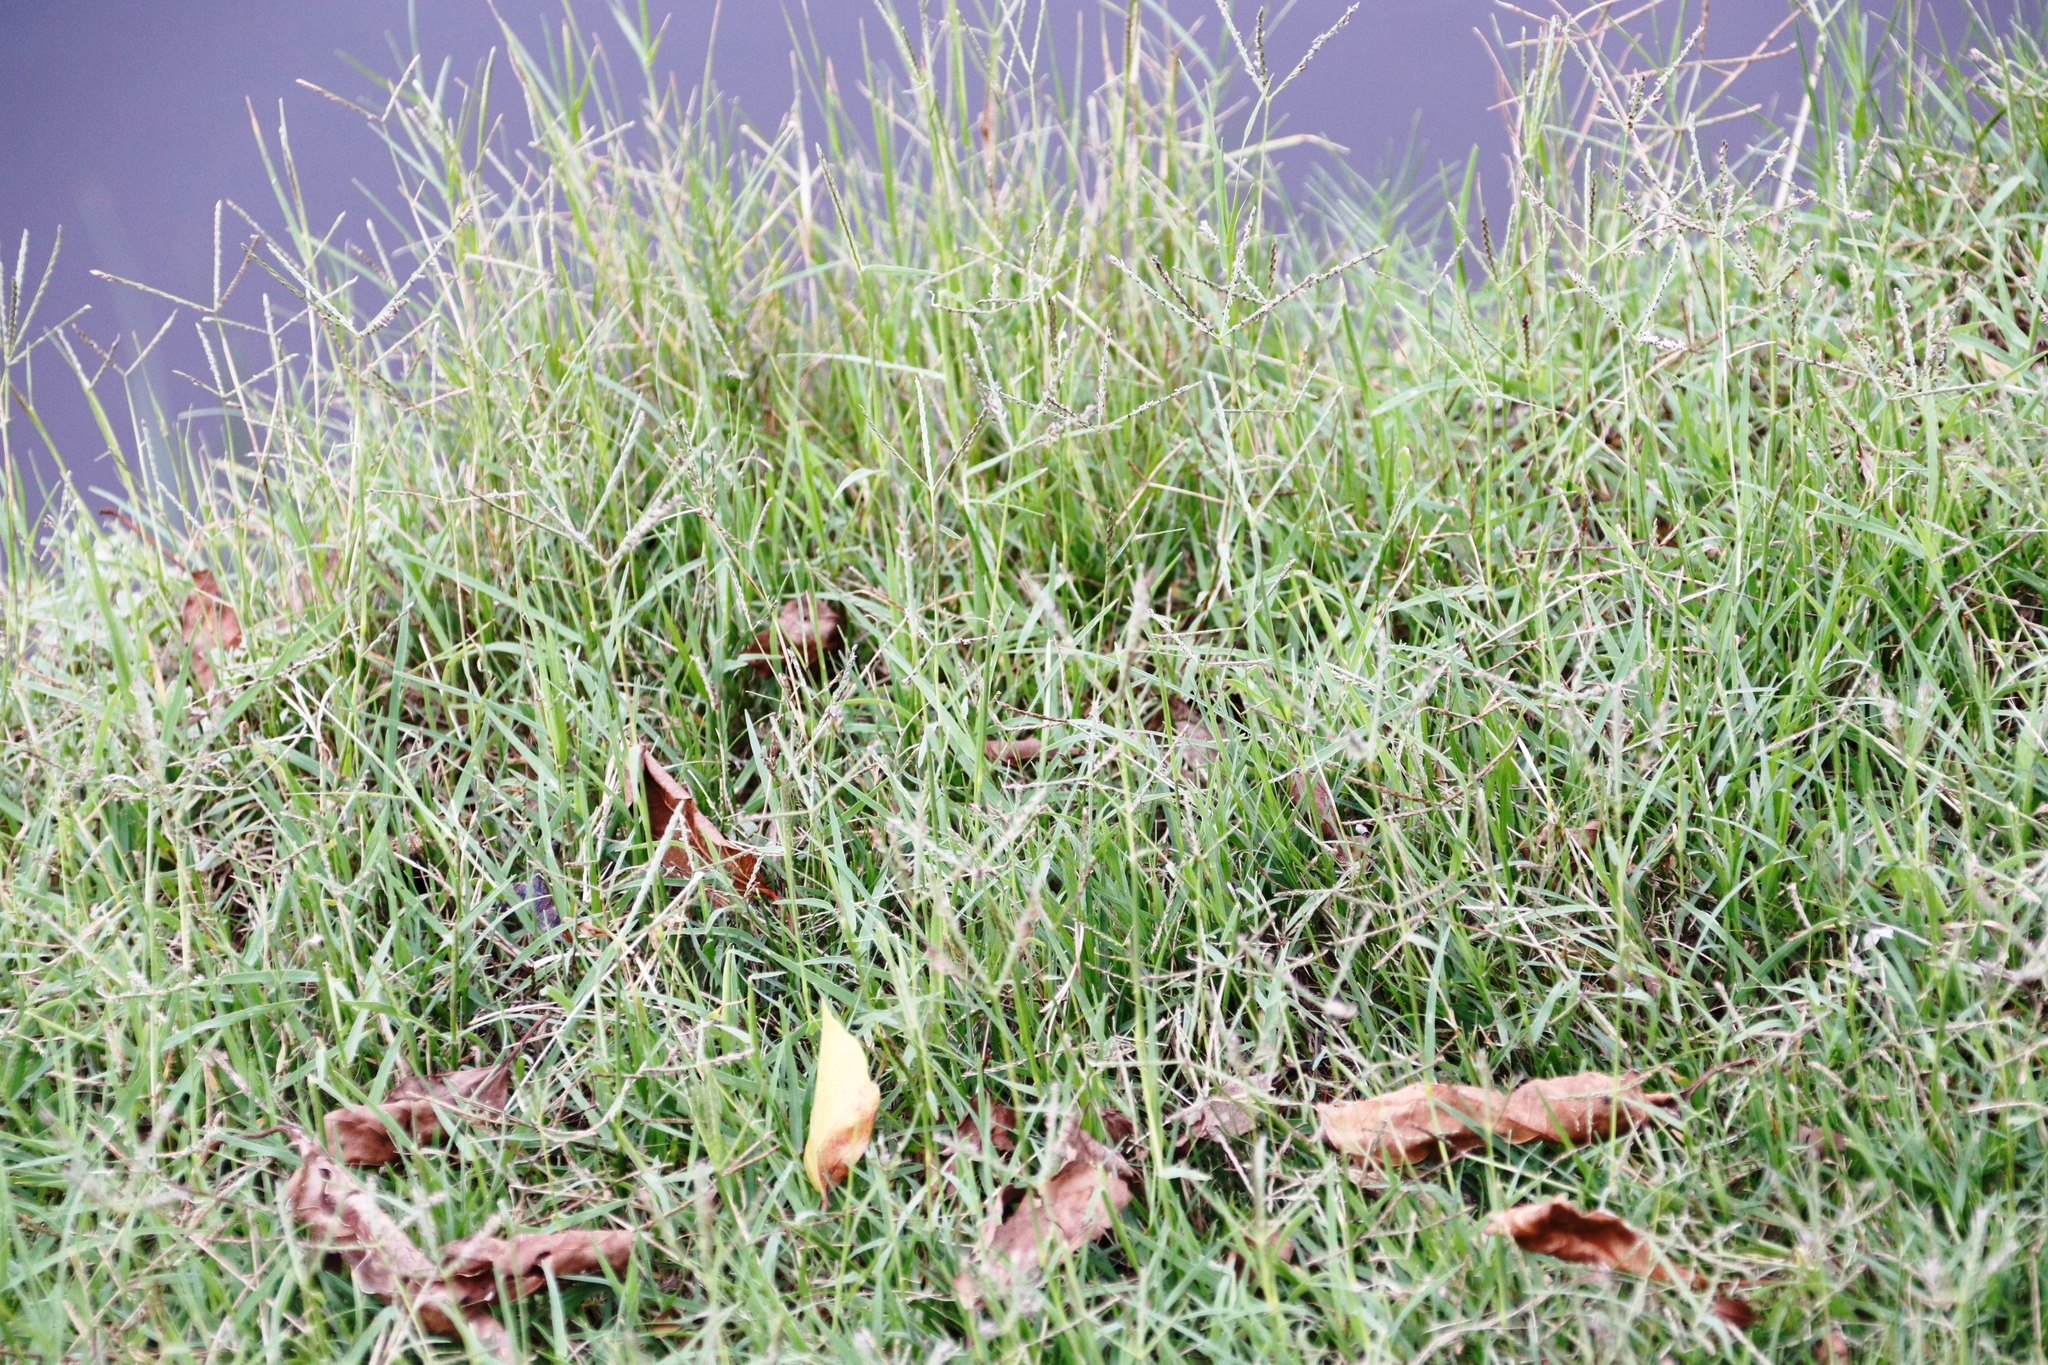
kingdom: Plantae
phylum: Tracheophyta
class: Liliopsida
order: Poales
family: Poaceae
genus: Cynodon
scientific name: Cynodon dactylon
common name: Bermuda grass
